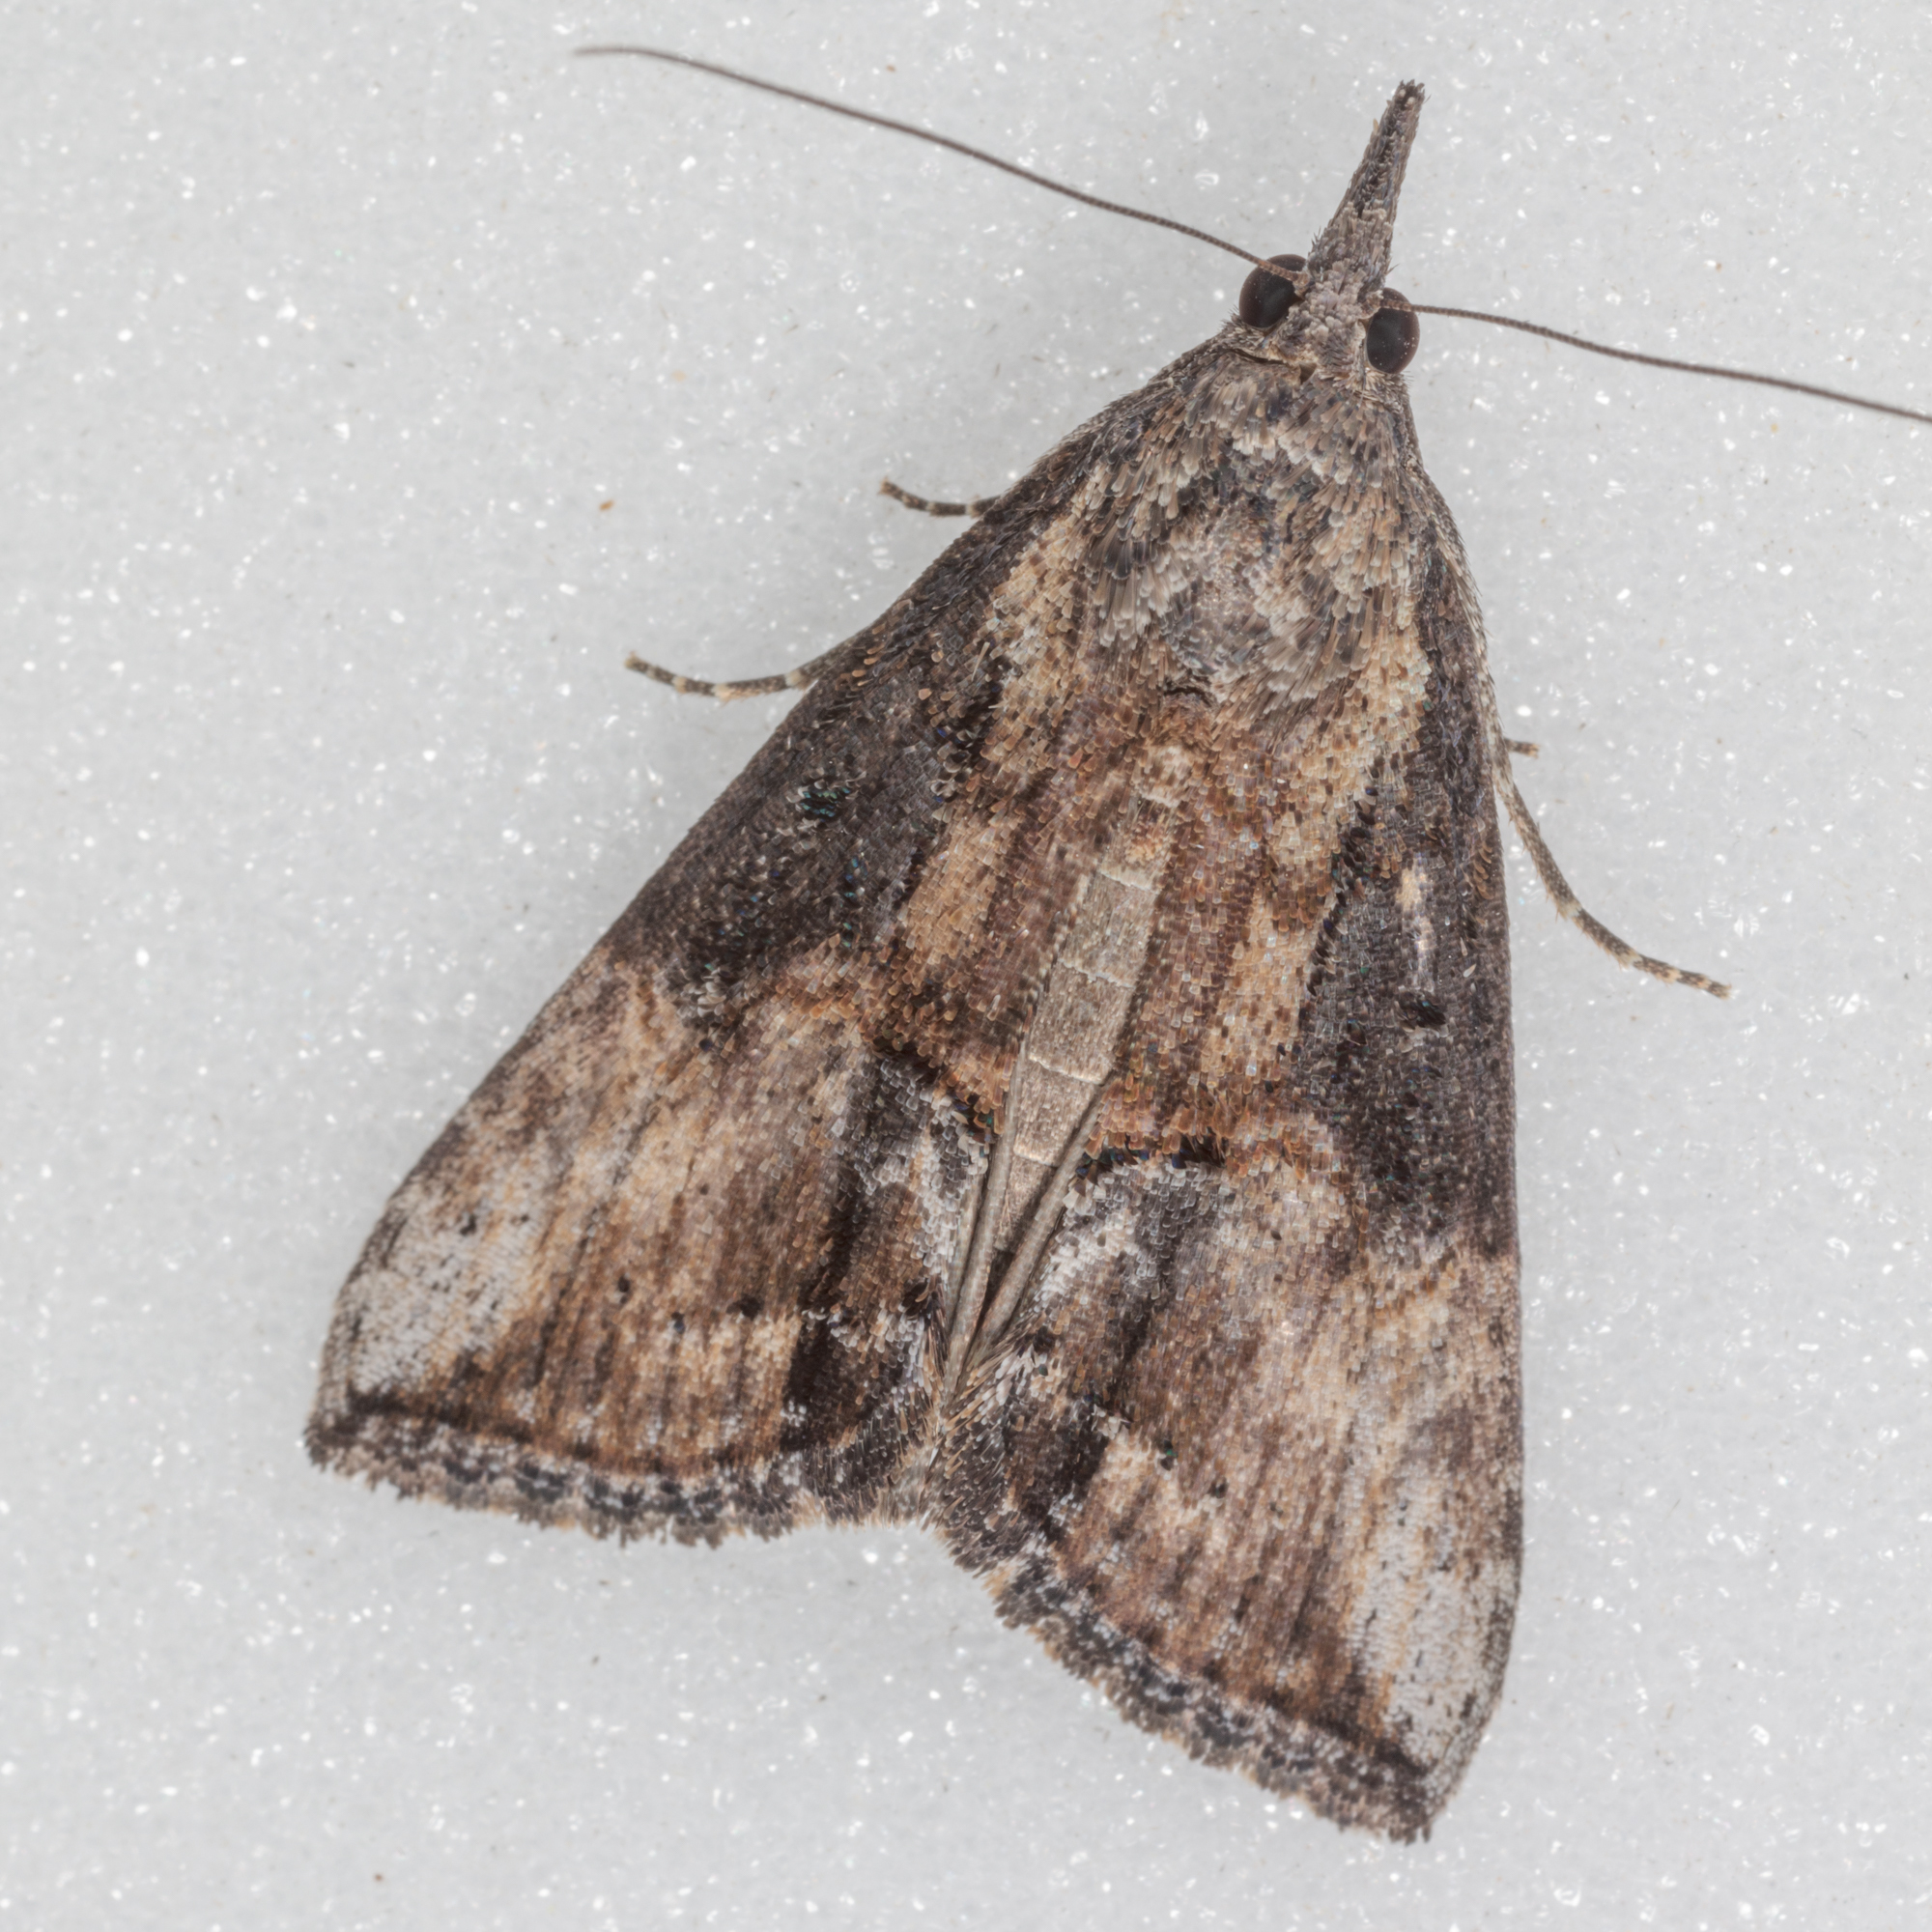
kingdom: Animalia
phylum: Arthropoda
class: Insecta
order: Lepidoptera
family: Erebidae
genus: Hypena
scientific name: Hypena scabra
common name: Green cloverworm
